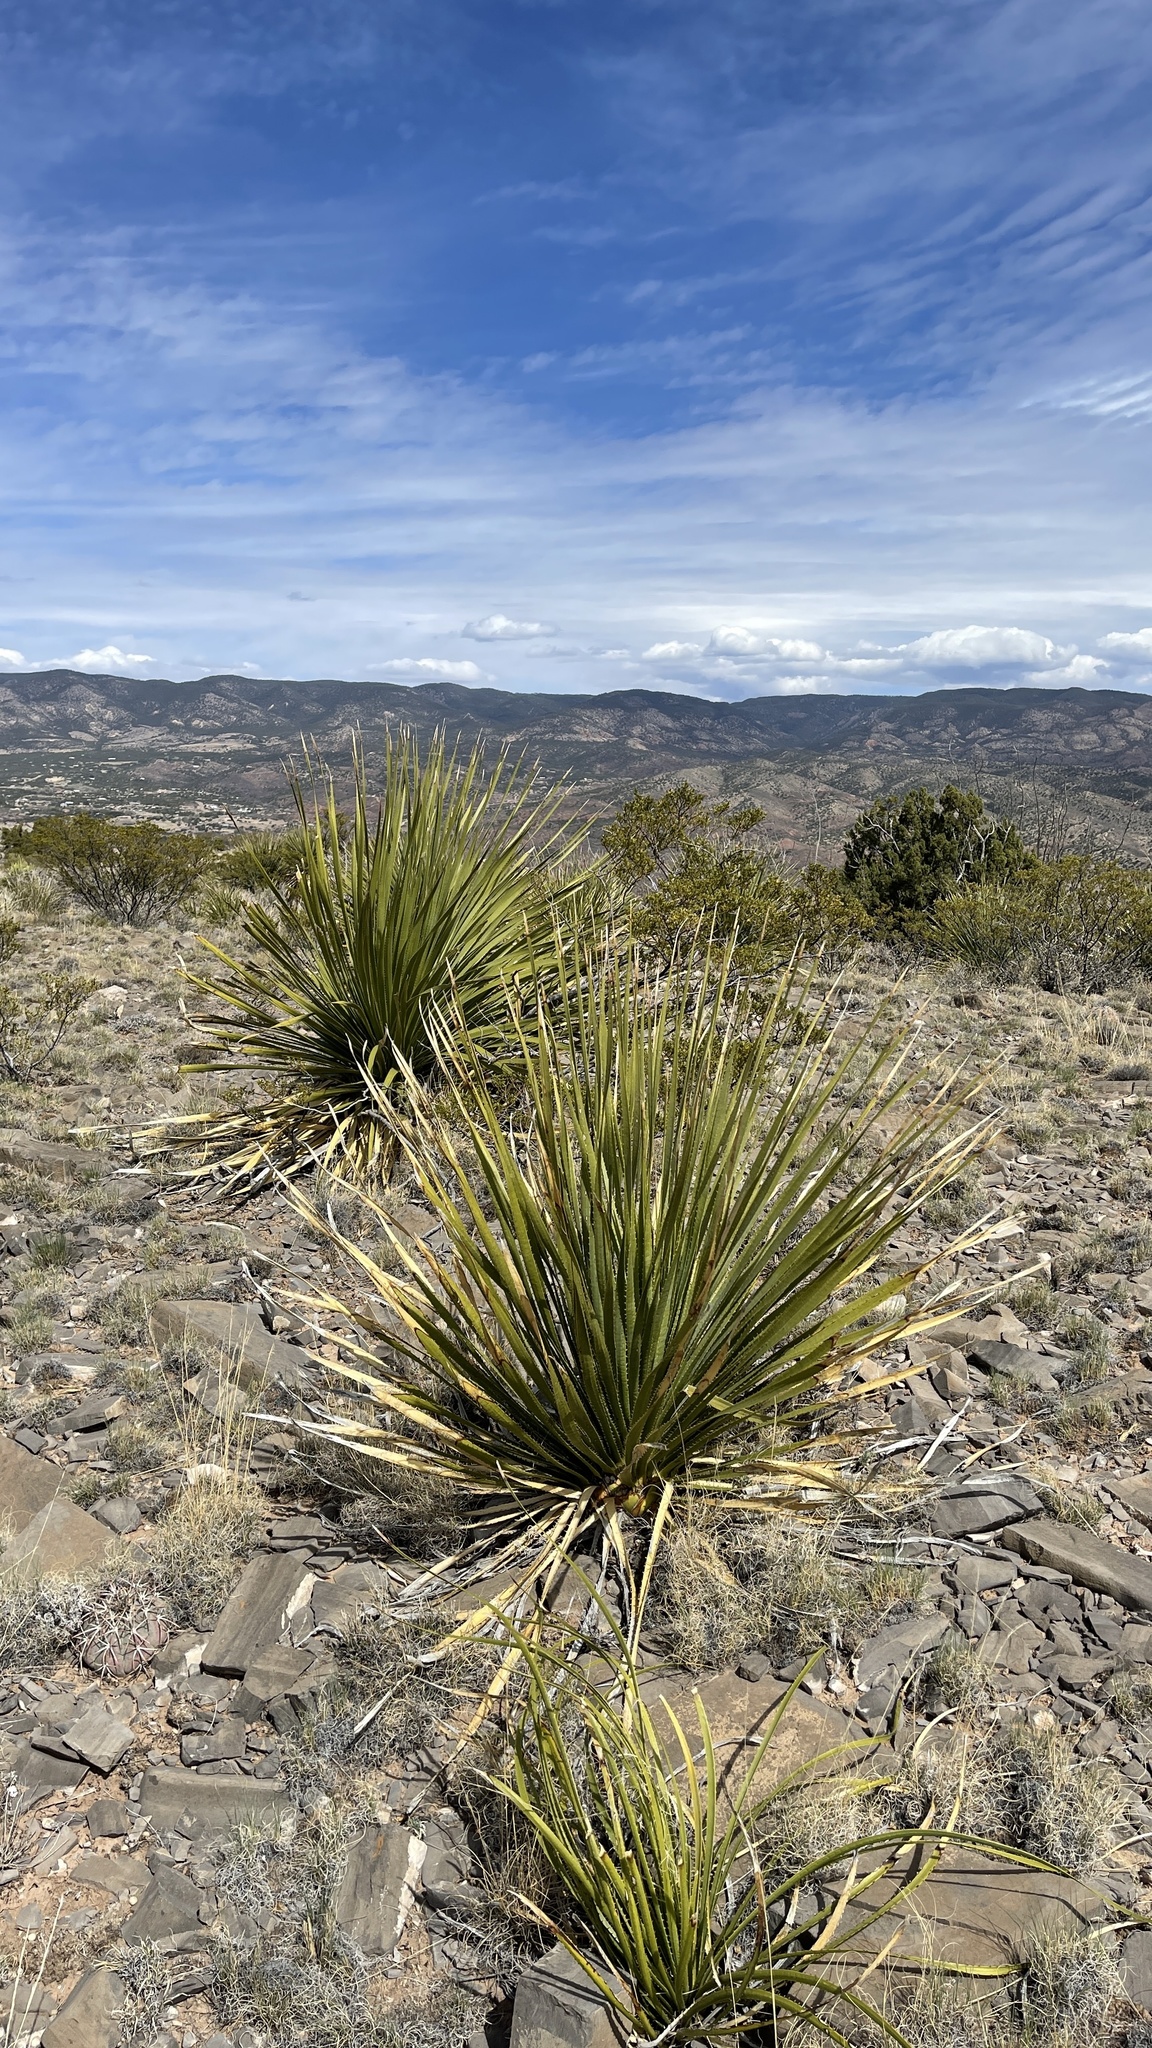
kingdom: Plantae
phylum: Tracheophyta
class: Liliopsida
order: Asparagales
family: Asparagaceae
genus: Dasylirion
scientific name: Dasylirion wheeleri
